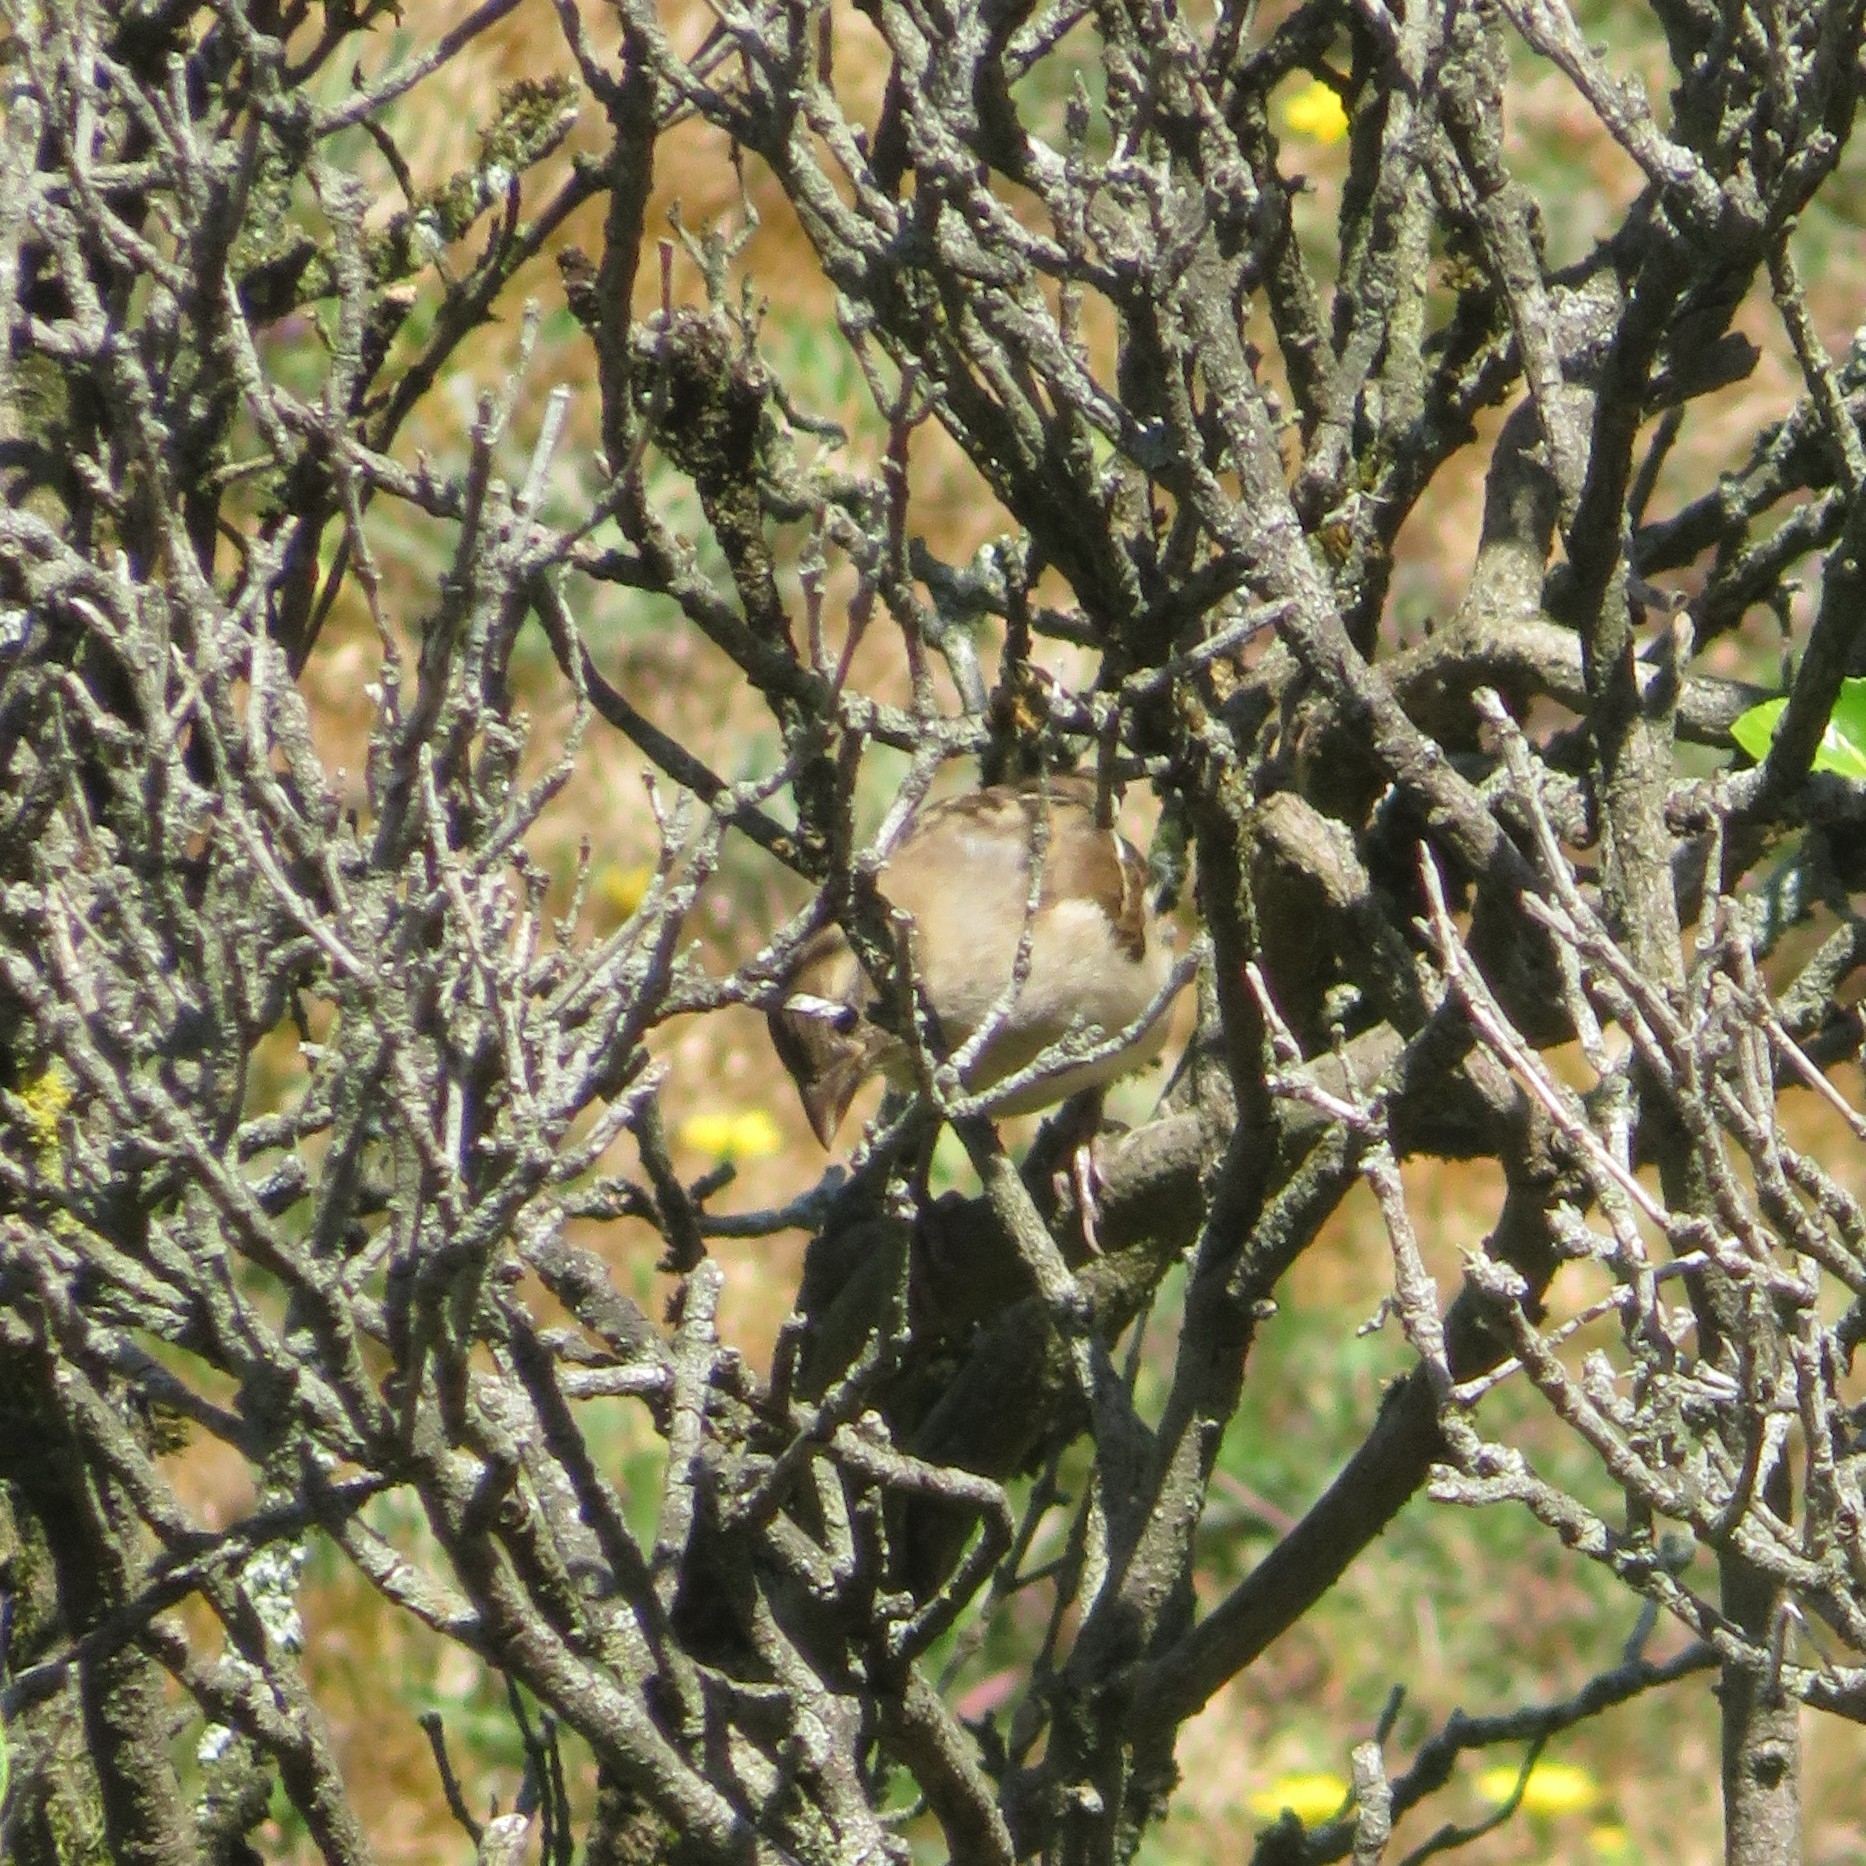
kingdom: Animalia
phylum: Chordata
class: Aves
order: Passeriformes
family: Passeridae
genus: Passer
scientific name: Passer domesticus
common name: House sparrow
